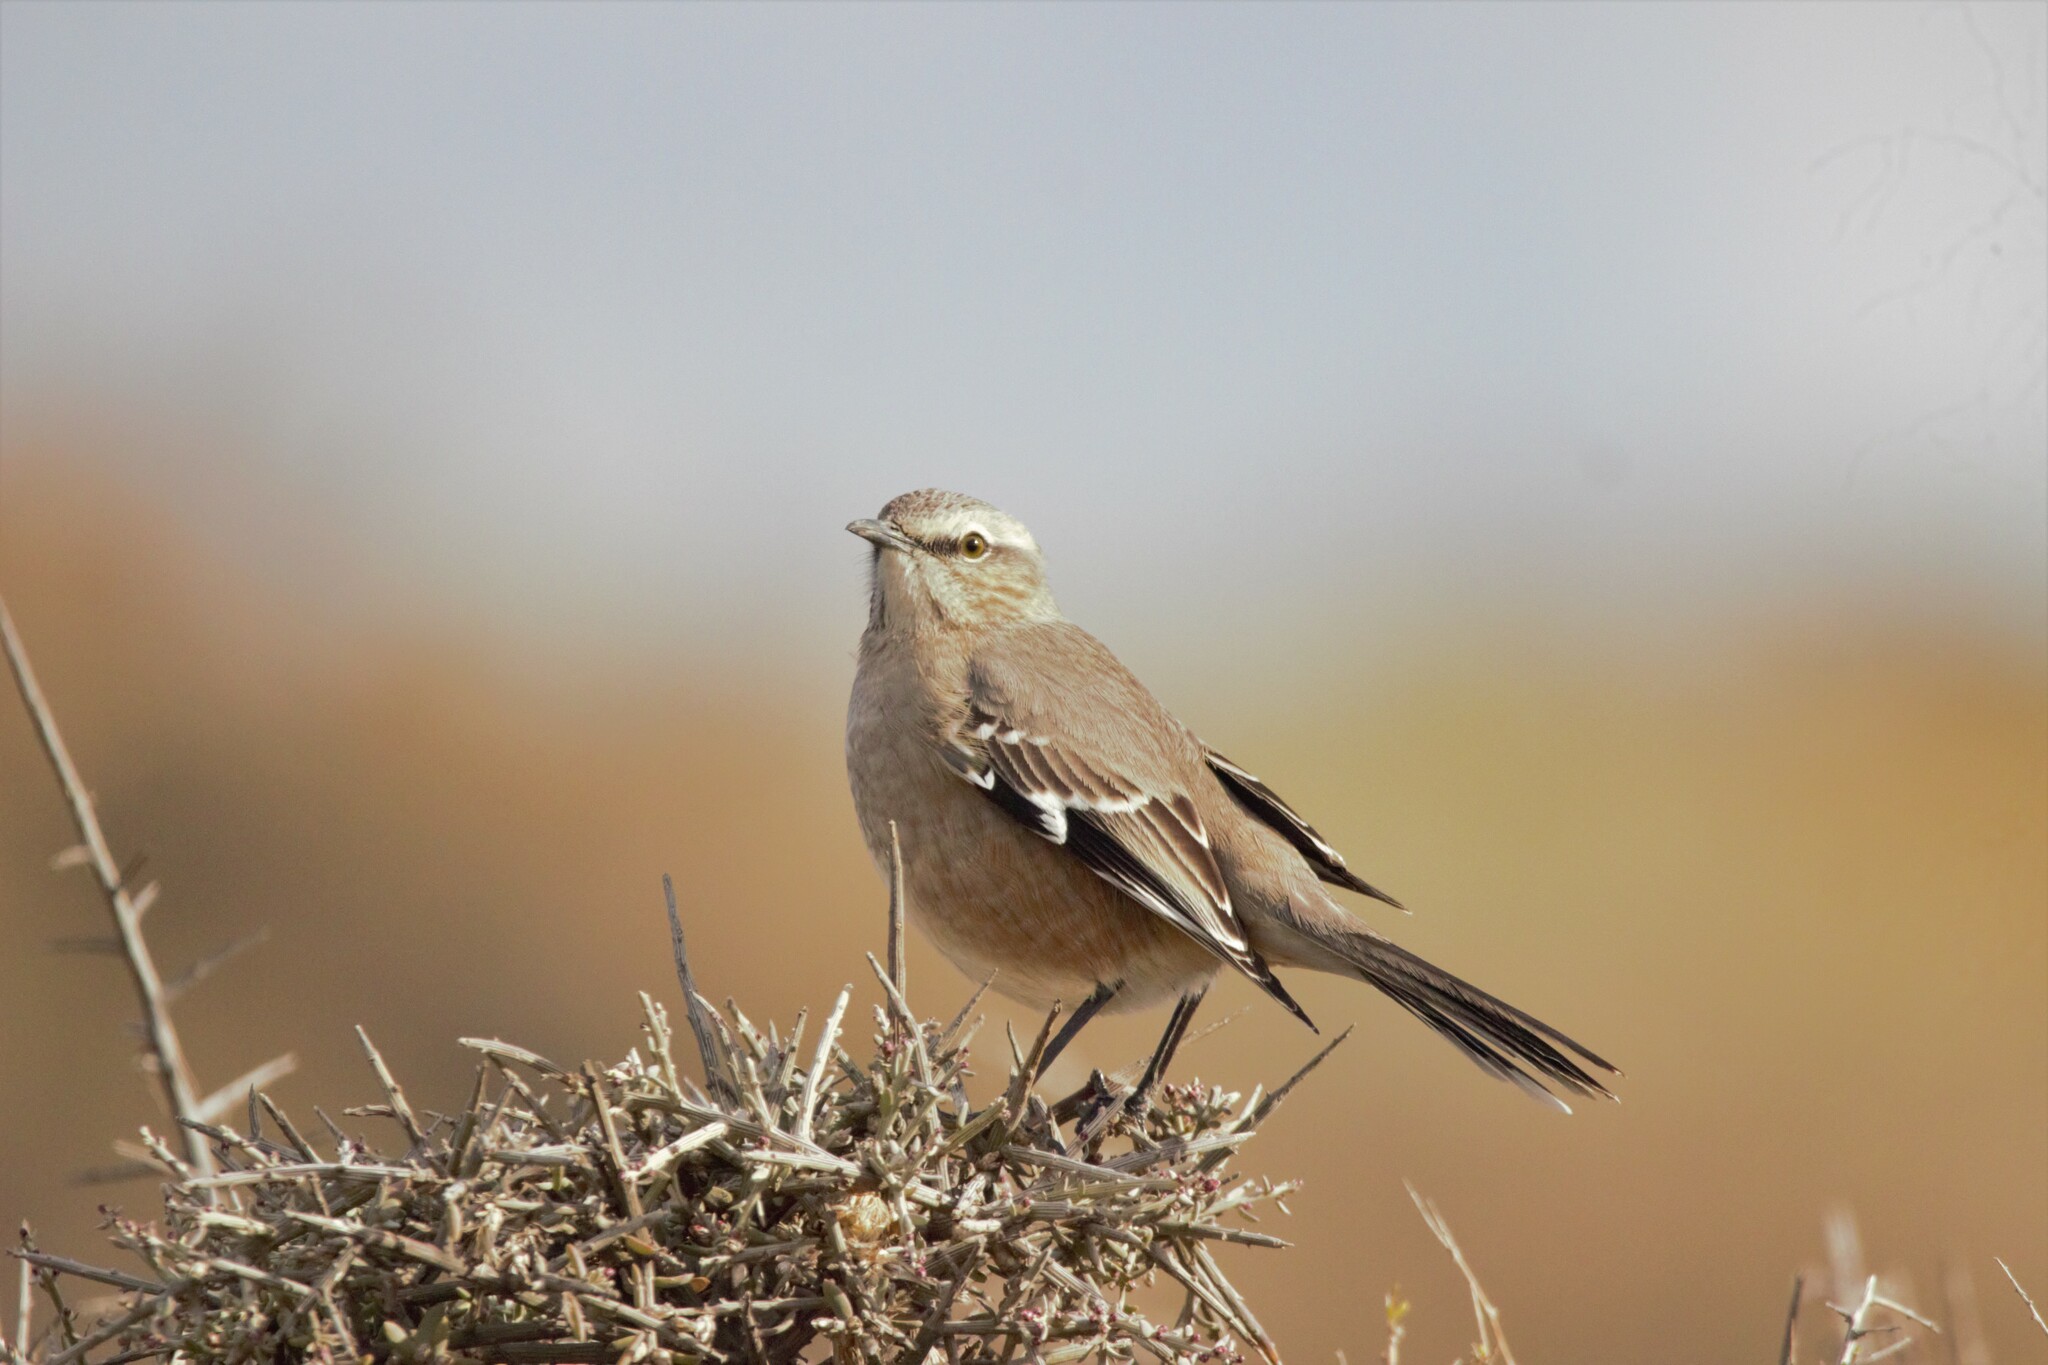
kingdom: Animalia
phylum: Chordata
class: Aves
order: Passeriformes
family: Mimidae
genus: Mimus
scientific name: Mimus saturninus
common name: Chalk-browed mockingbird
